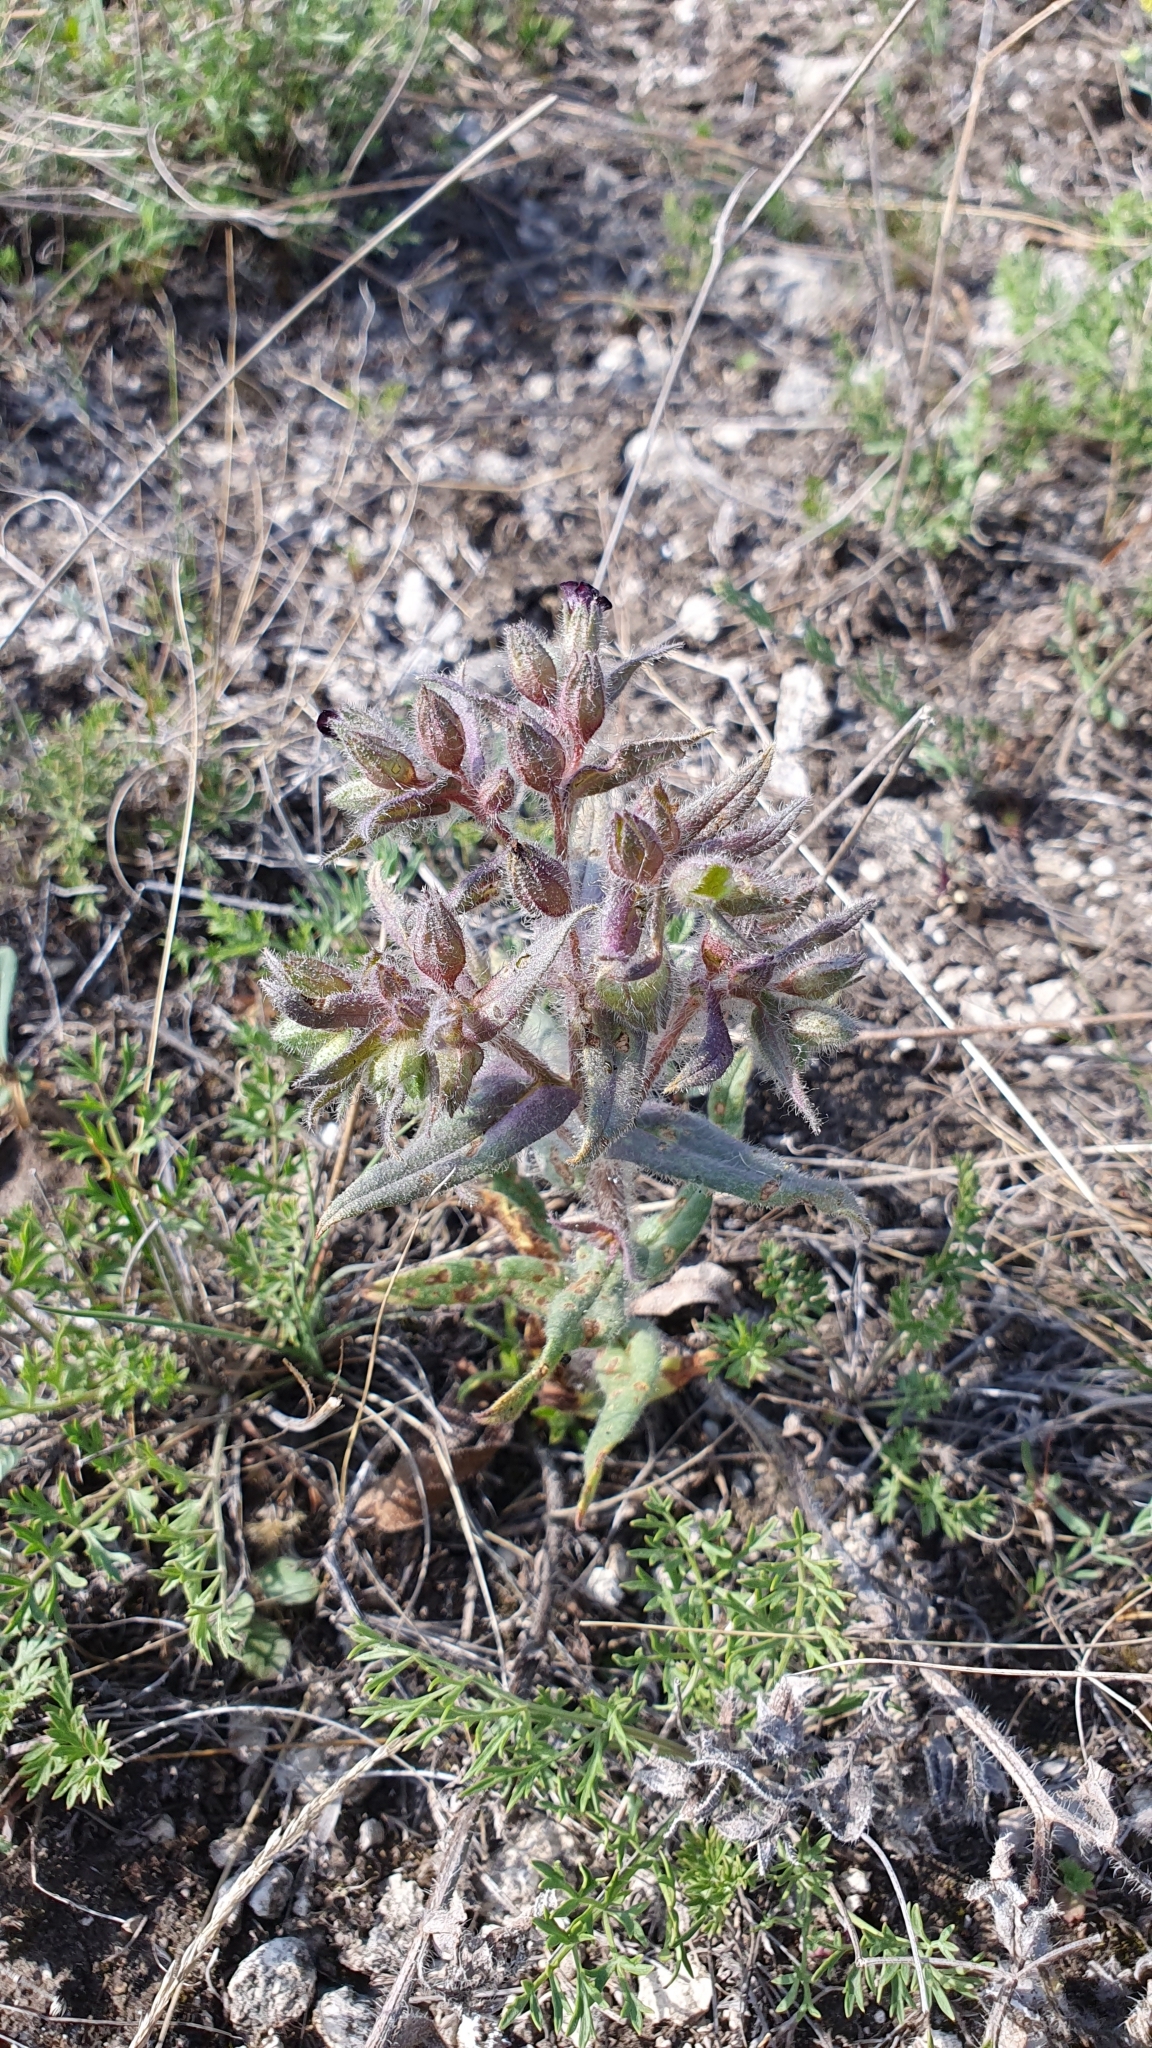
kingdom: Plantae
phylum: Tracheophyta
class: Magnoliopsida
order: Boraginales
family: Boraginaceae
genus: Nonea
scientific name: Nonea pulla
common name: Brown nonea
